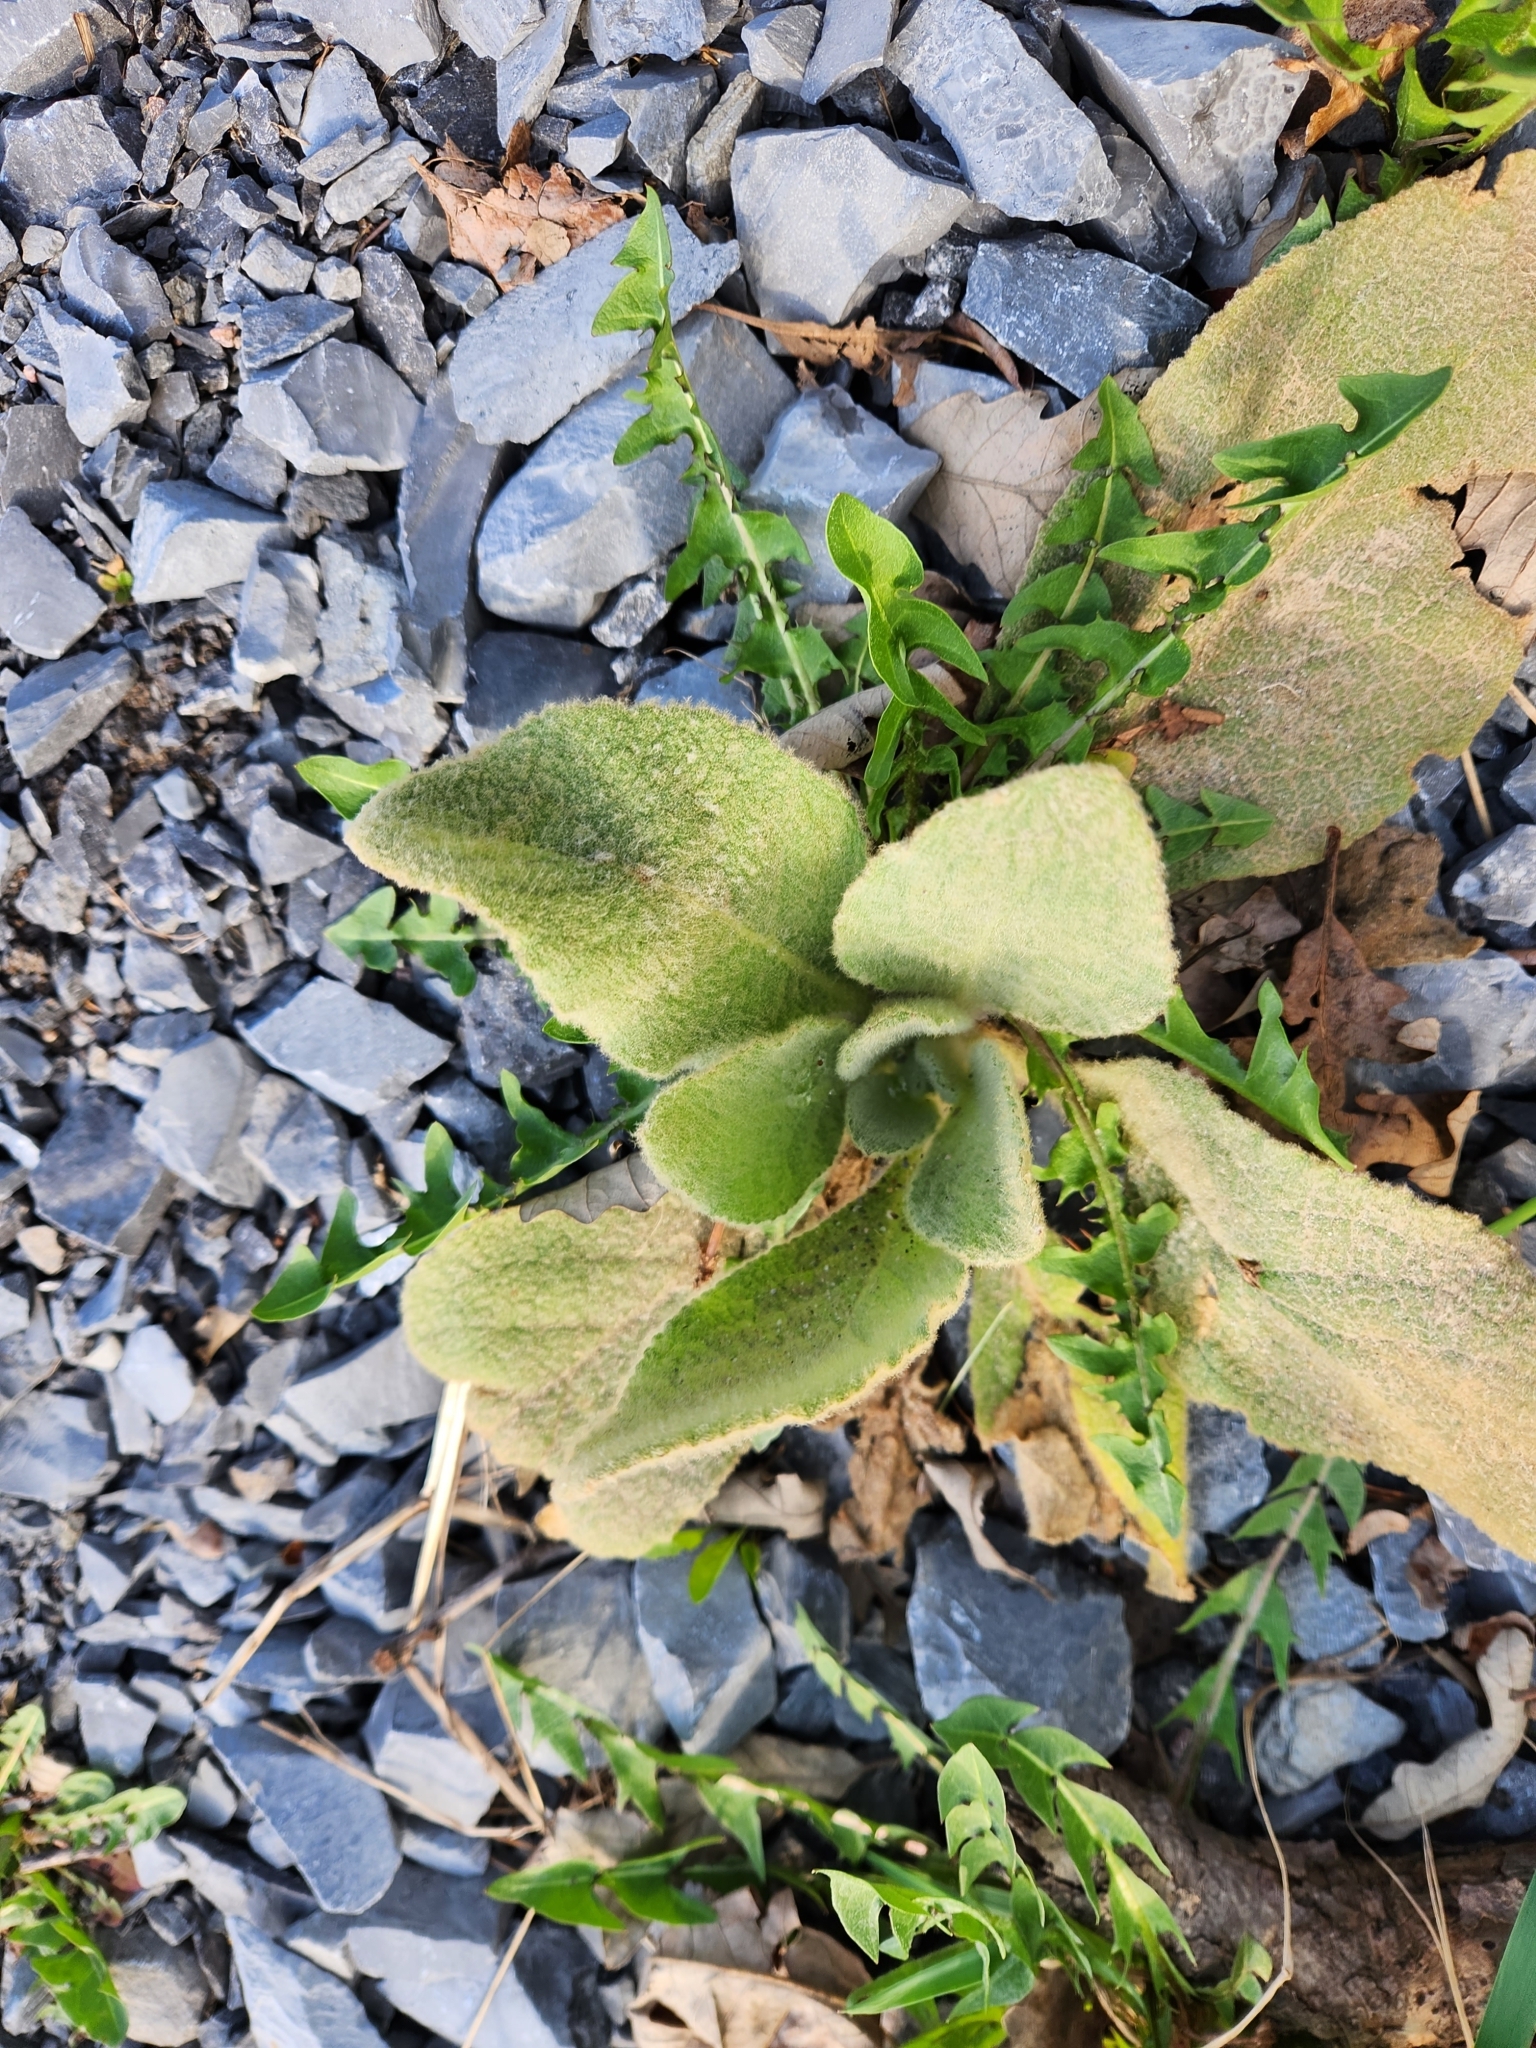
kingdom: Plantae
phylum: Tracheophyta
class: Magnoliopsida
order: Lamiales
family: Scrophulariaceae
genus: Verbascum
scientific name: Verbascum thapsus
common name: Common mullein
